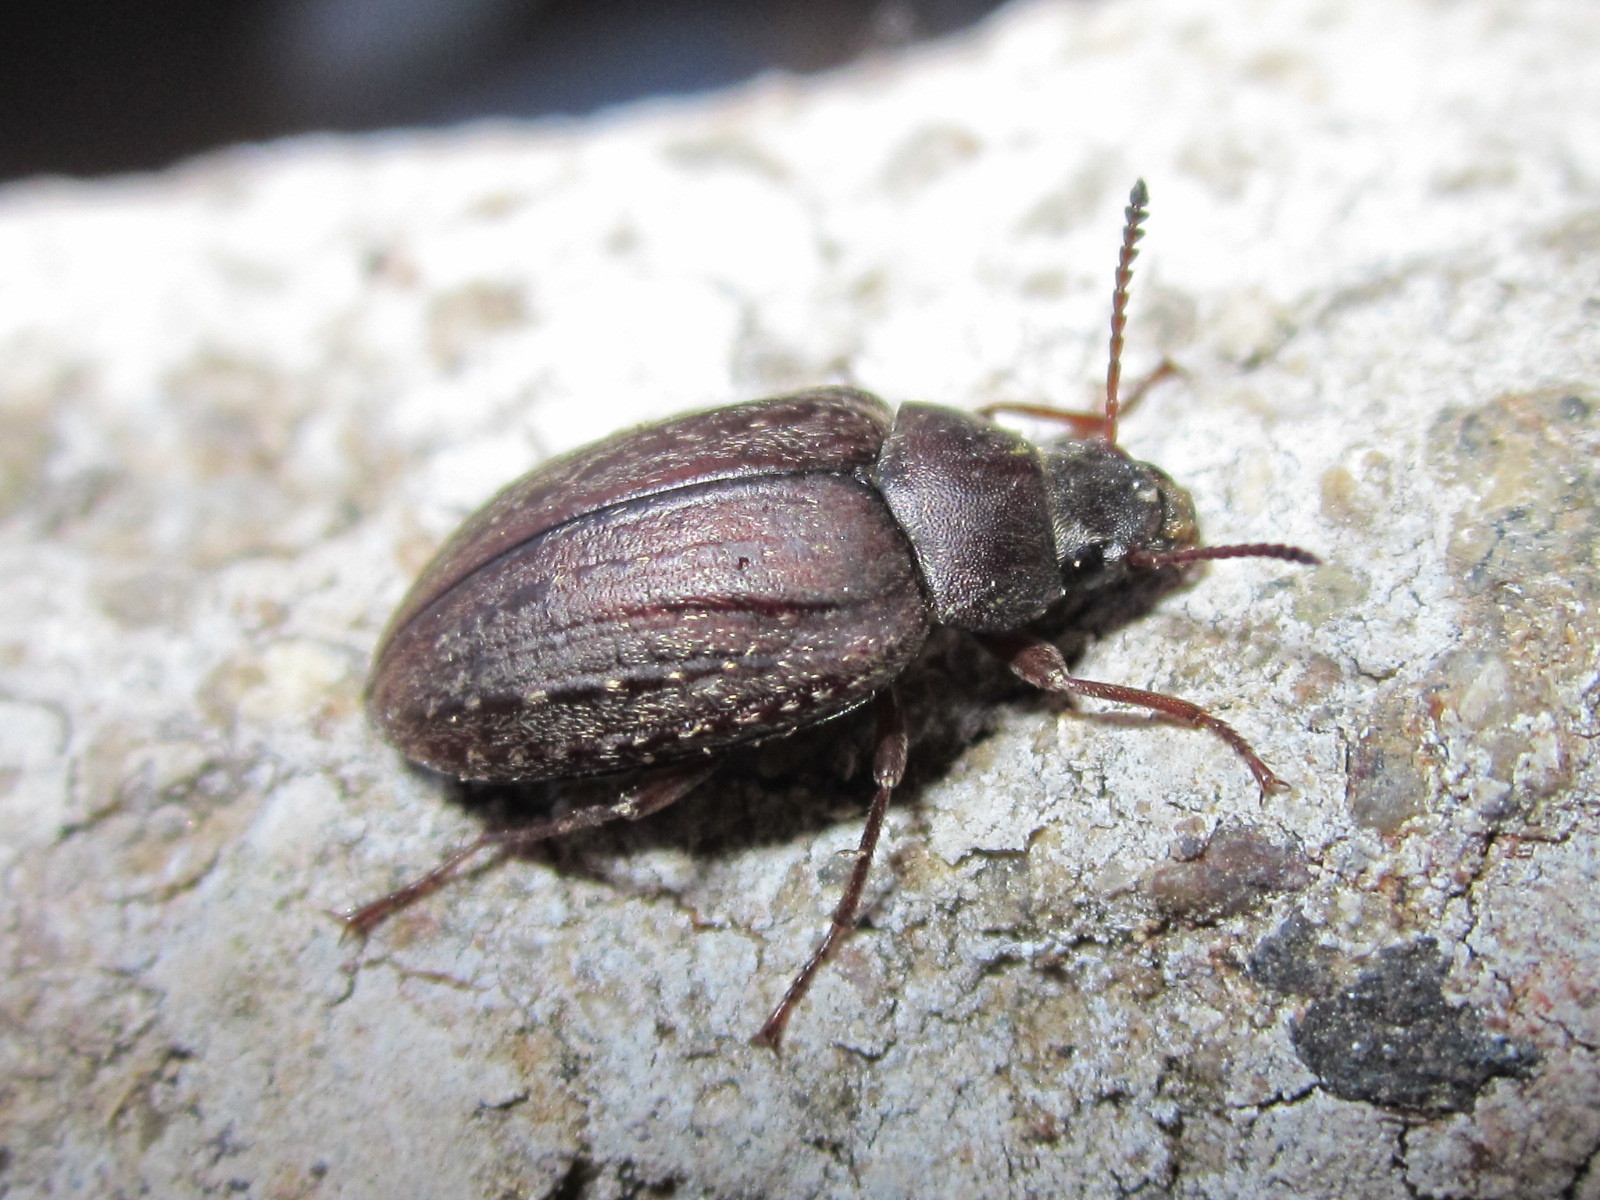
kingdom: Animalia
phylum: Arthropoda
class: Insecta
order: Coleoptera
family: Tenebrionidae
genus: Nyctopetus
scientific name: Nyctopetus tenebrioides
